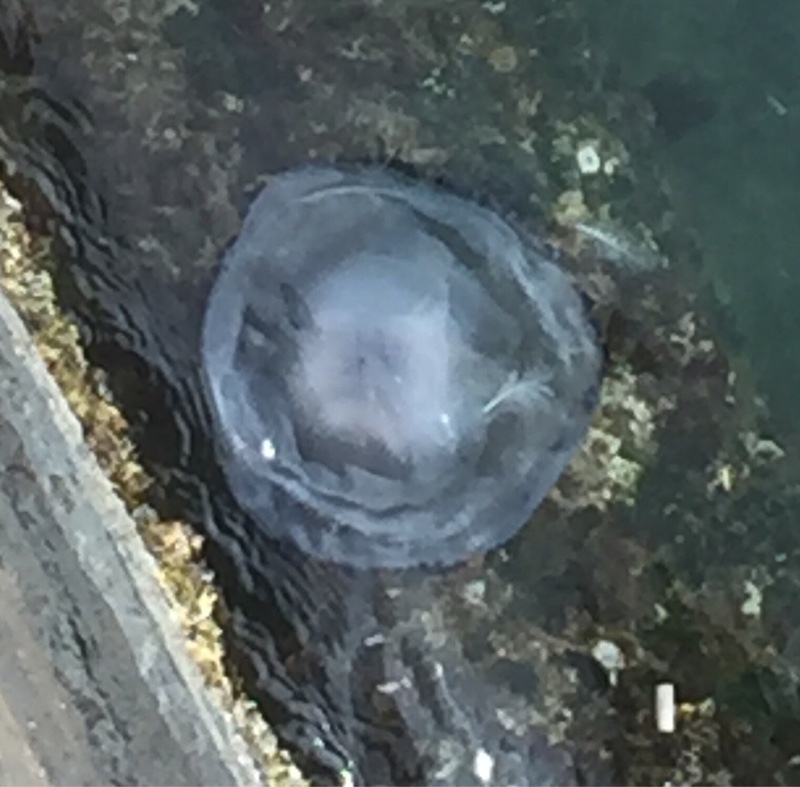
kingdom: Animalia
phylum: Cnidaria
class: Scyphozoa
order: Rhizostomeae
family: Rhizostomatidae
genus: Rhizostoma
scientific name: Rhizostoma pulmo
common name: Barrel jellyfish
